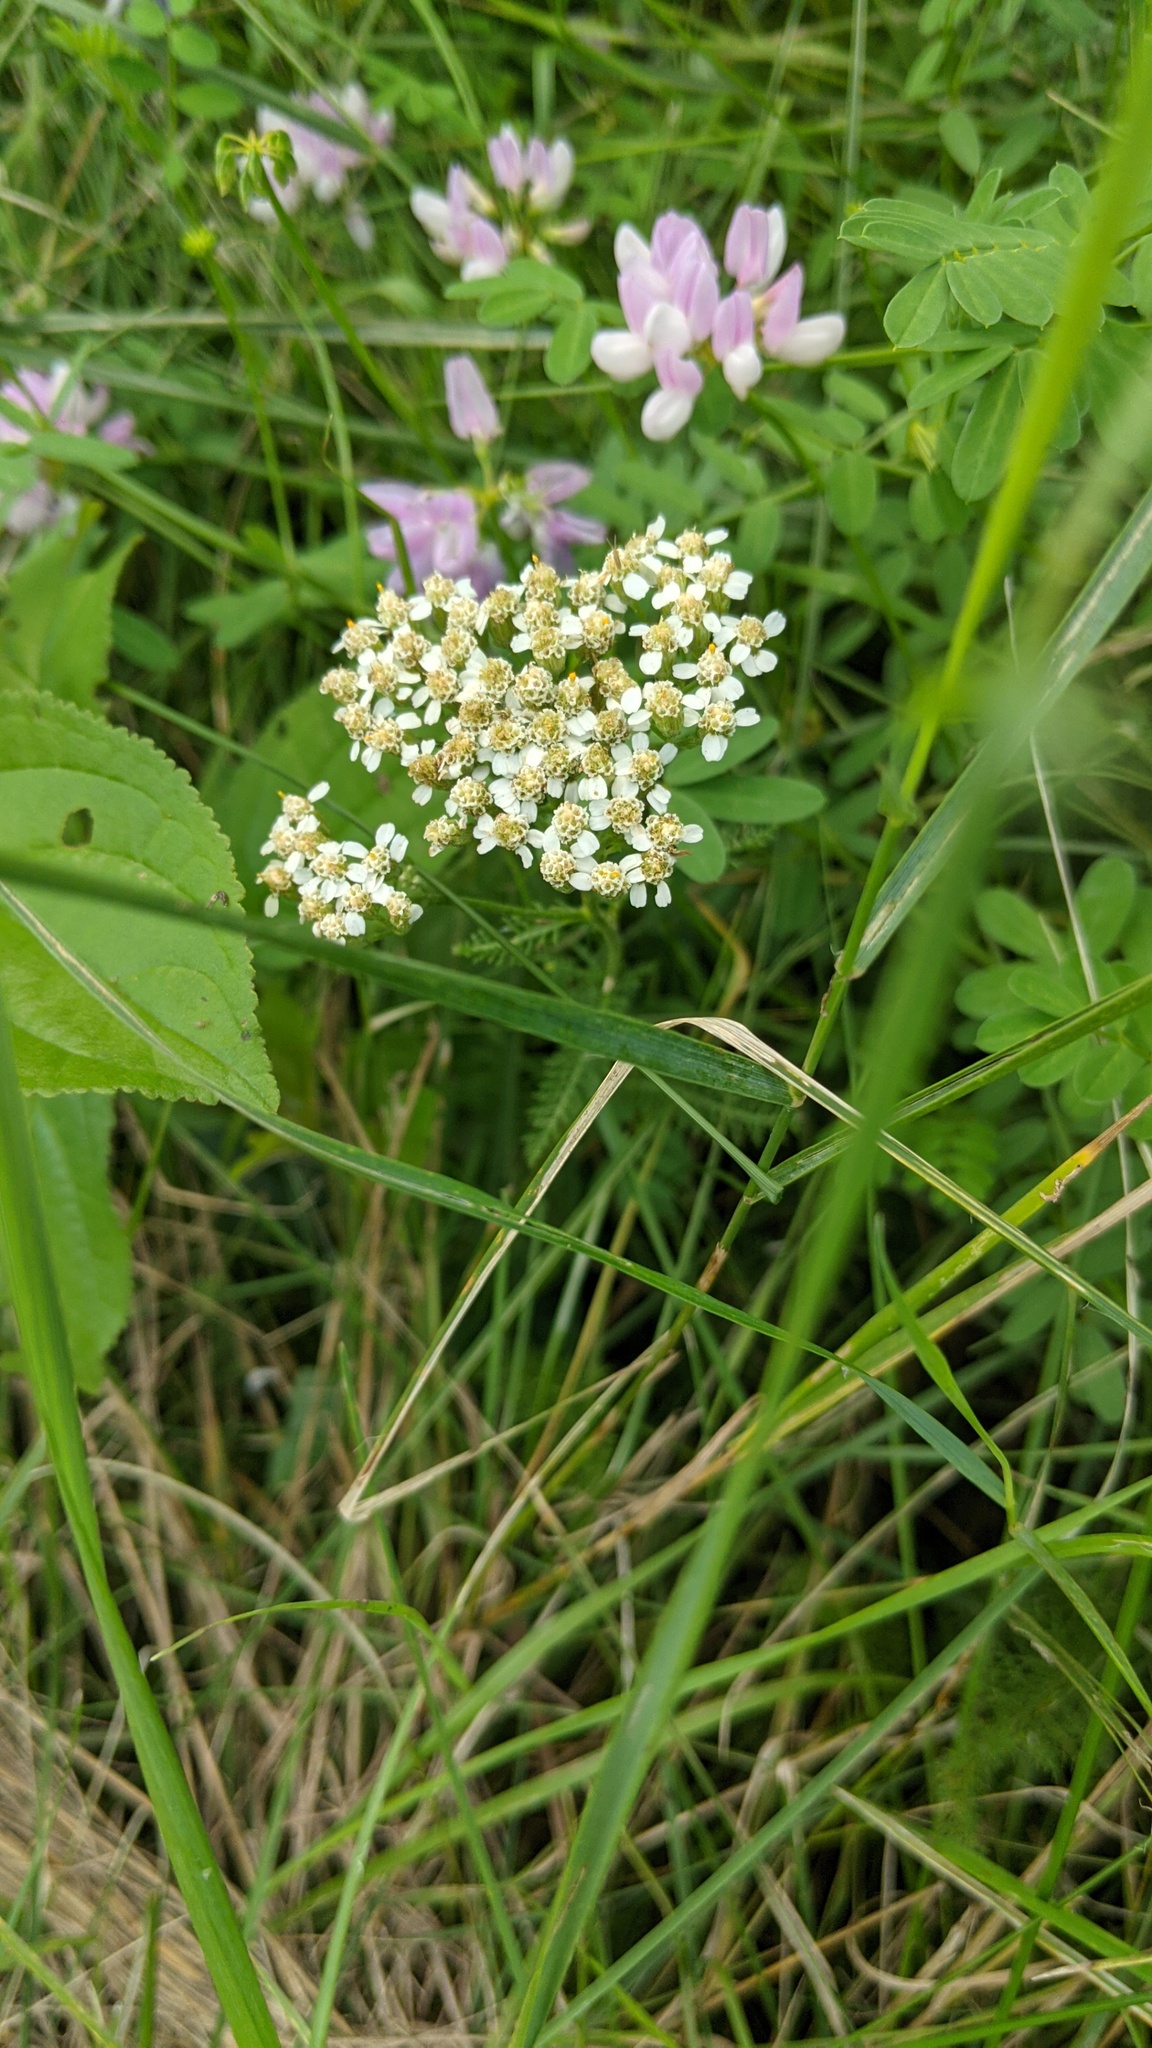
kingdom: Plantae
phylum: Tracheophyta
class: Magnoliopsida
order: Asterales
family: Asteraceae
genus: Achillea
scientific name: Achillea millefolium
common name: Yarrow
